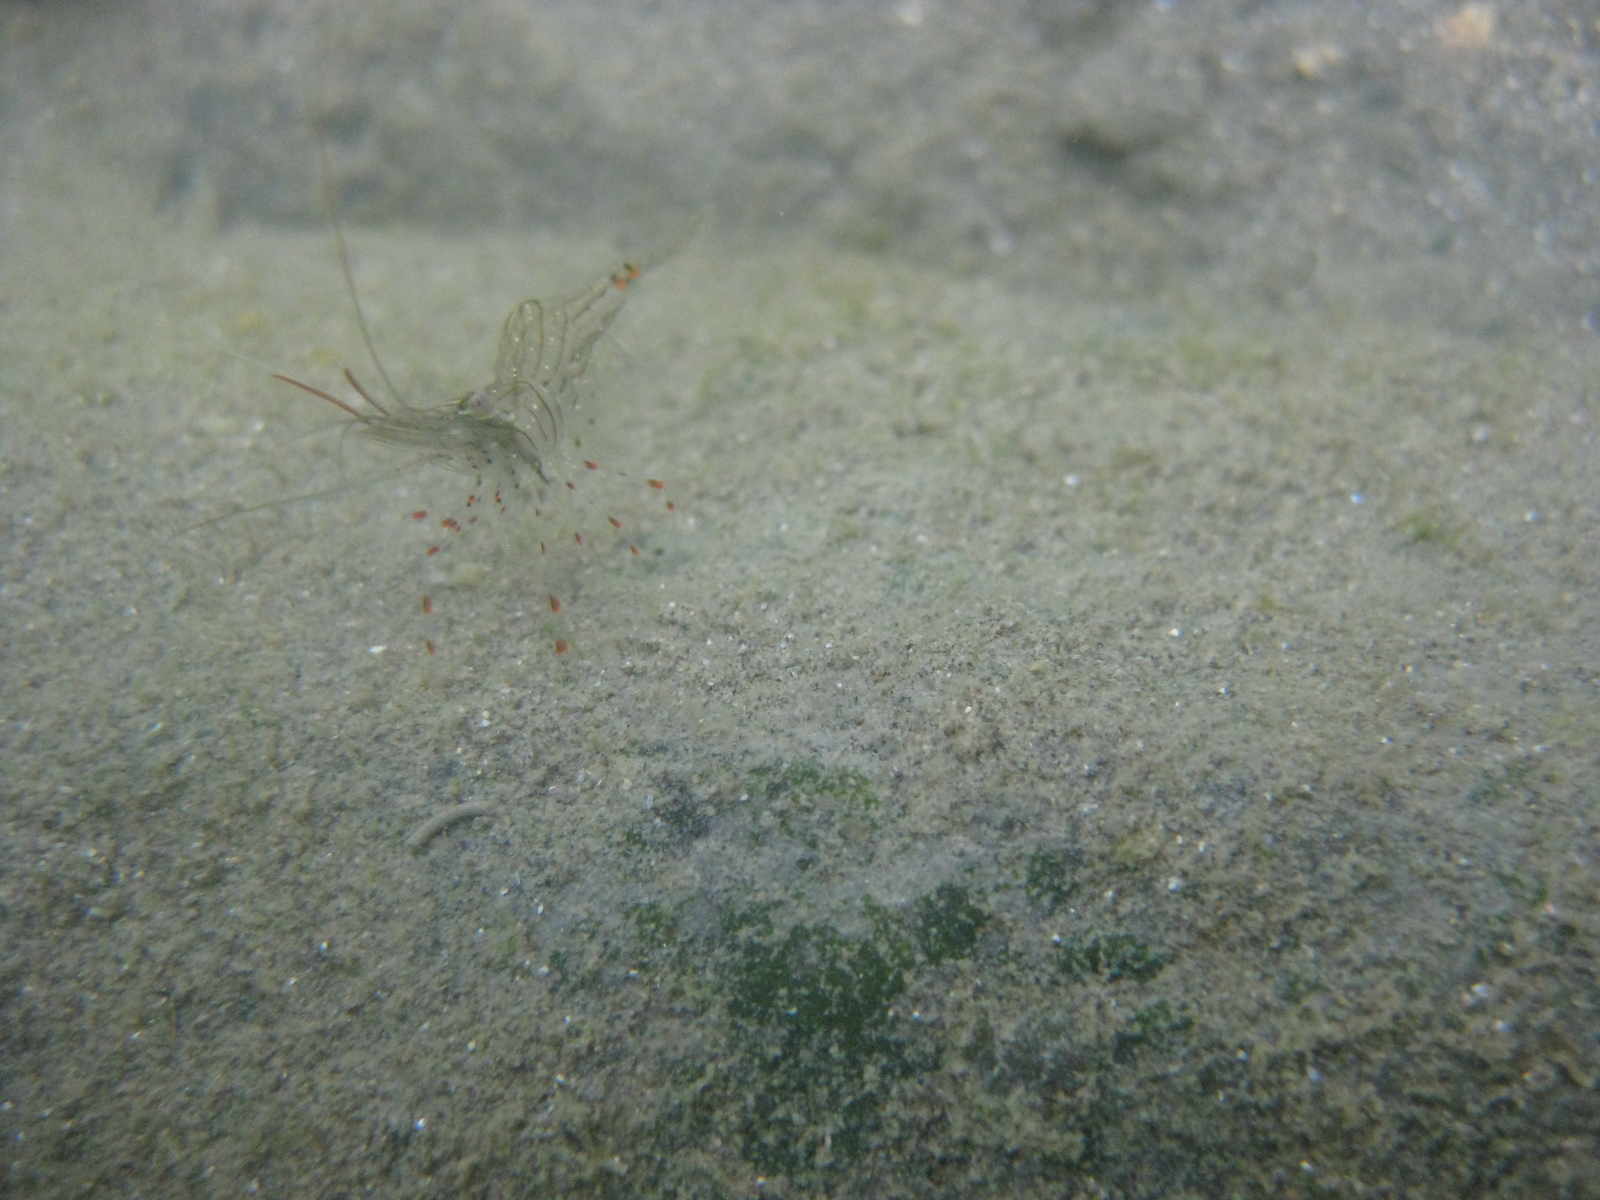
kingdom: Animalia
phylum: Arthropoda
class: Malacostraca
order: Decapoda
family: Palaemonidae
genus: Palaemon
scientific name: Palaemon affinis
